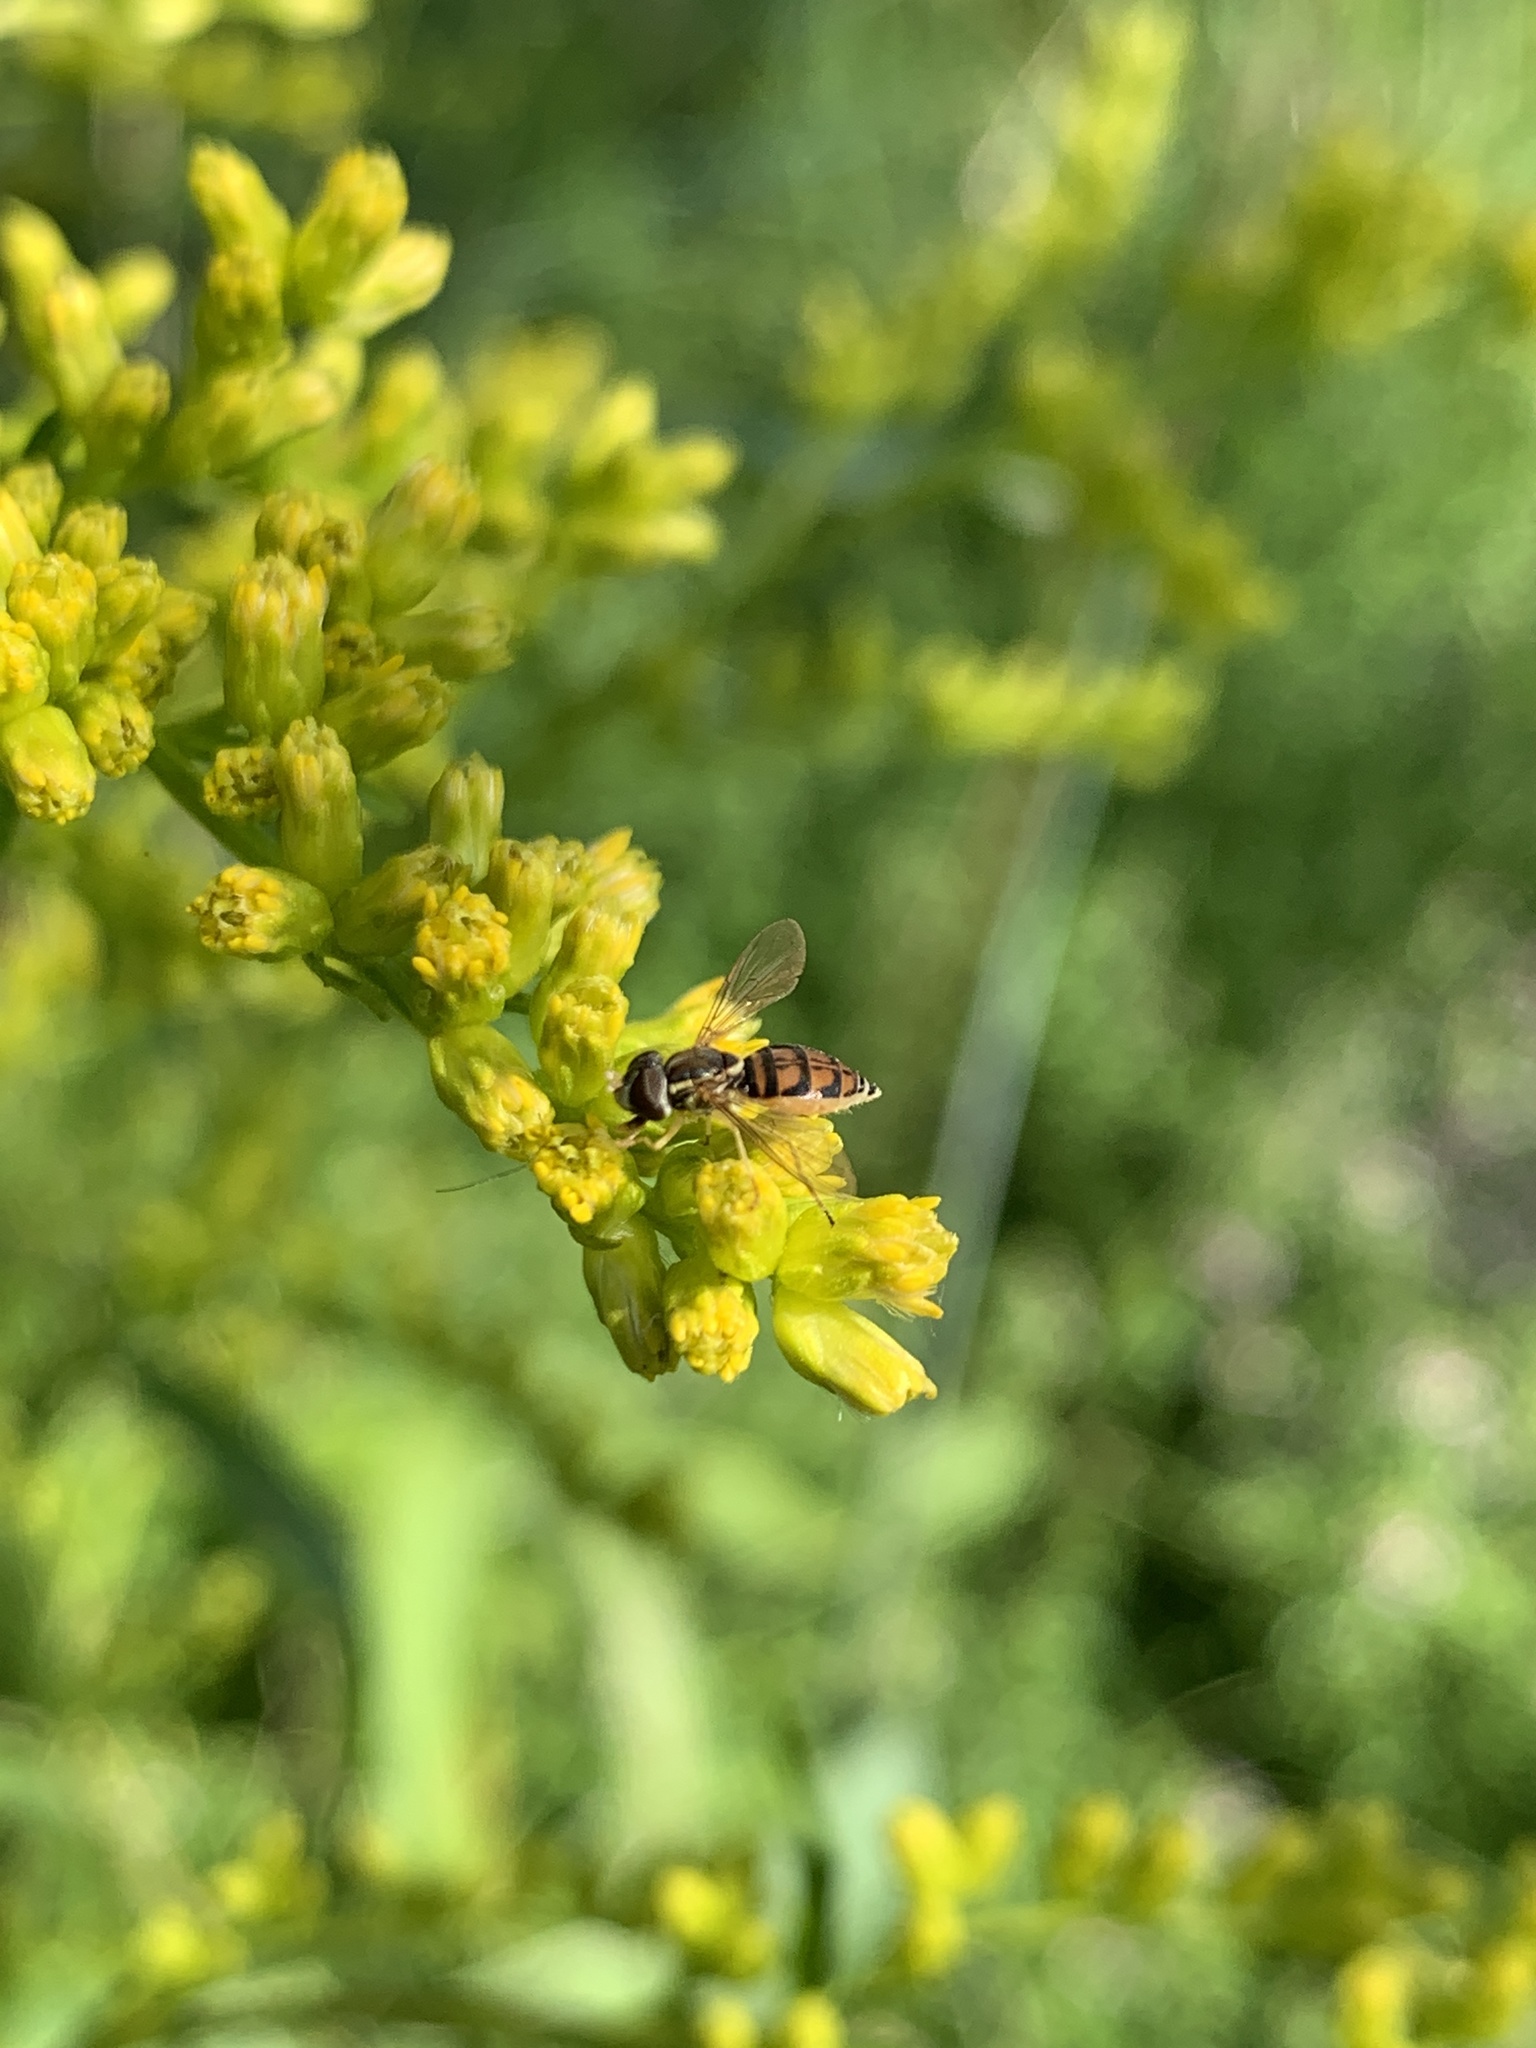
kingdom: Animalia
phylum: Arthropoda
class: Insecta
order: Diptera
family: Syrphidae
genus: Toxomerus
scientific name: Toxomerus marginatus
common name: Syrphid fly
